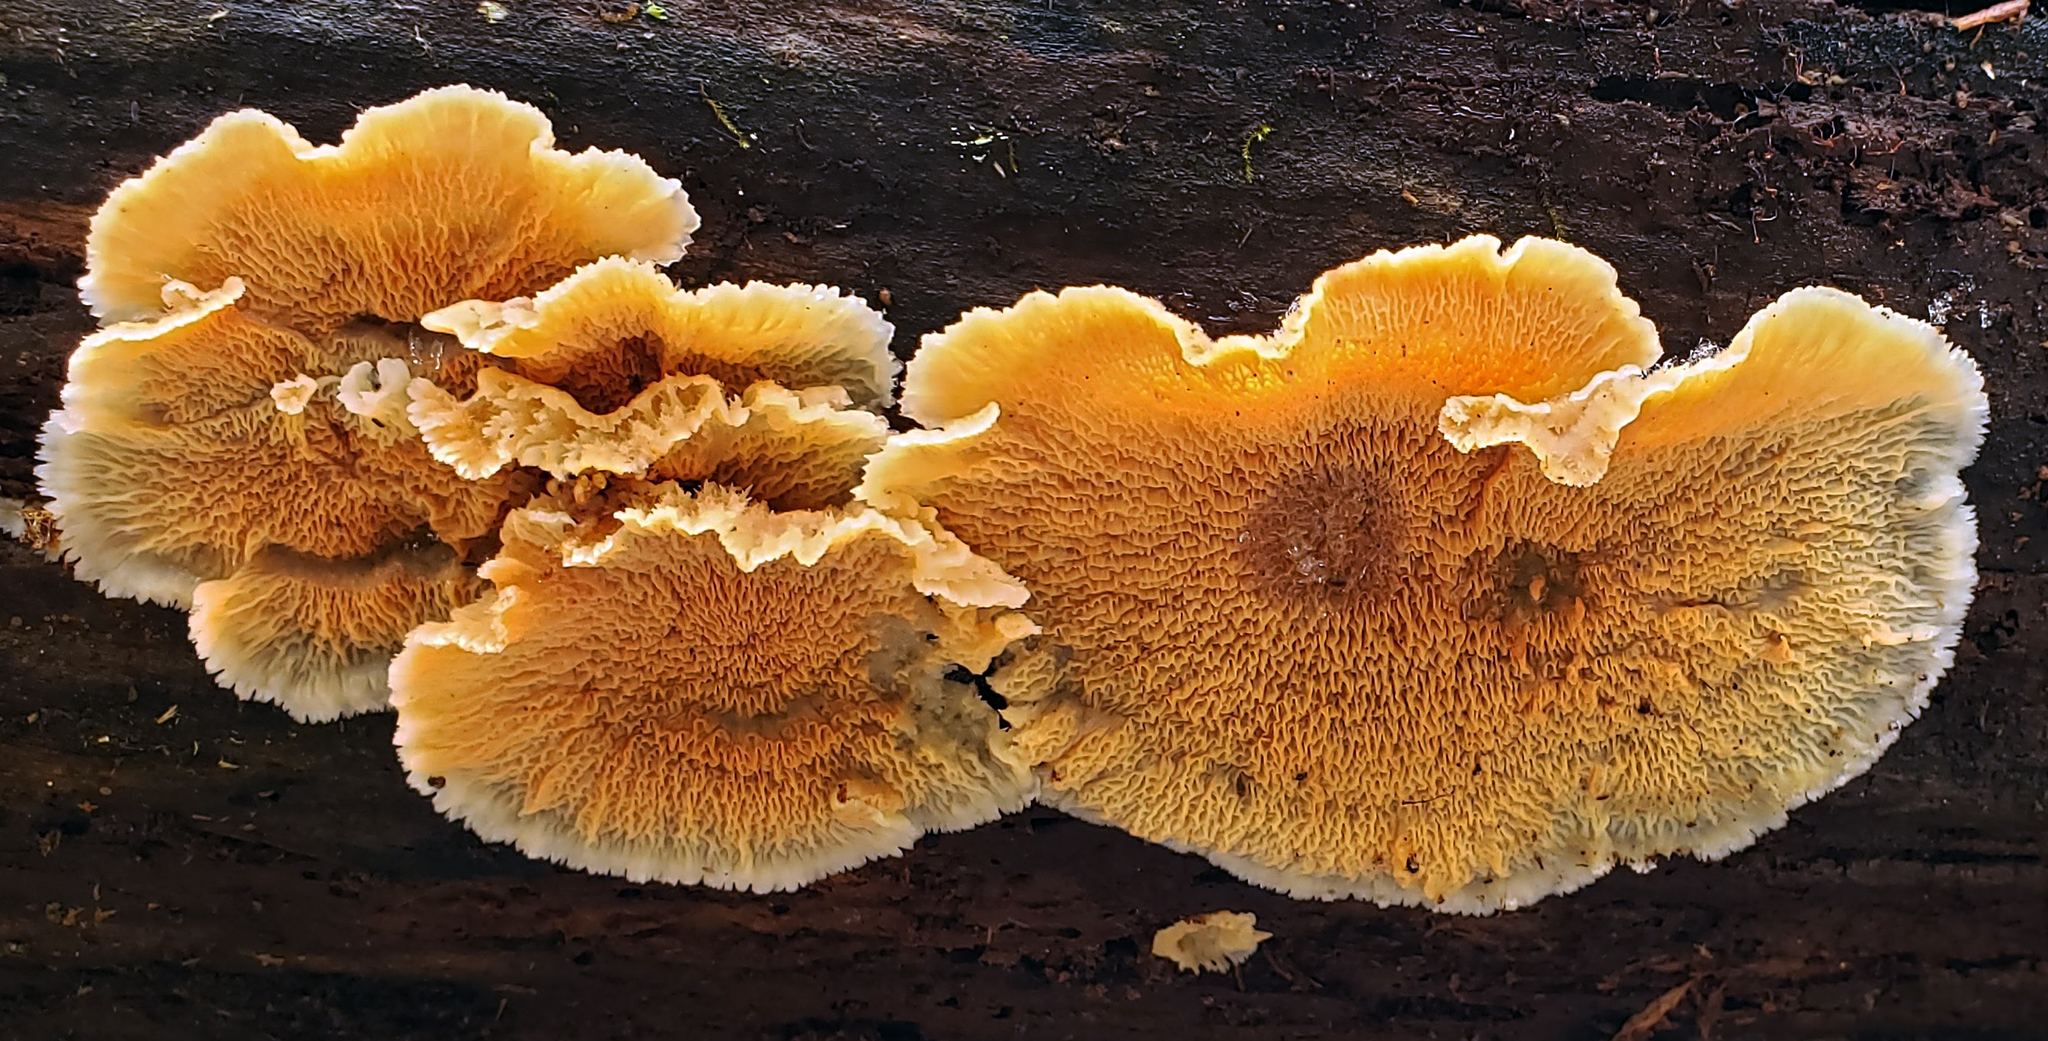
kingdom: Fungi
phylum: Basidiomycota
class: Agaricomycetes
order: Polyporales
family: Meruliaceae
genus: Phlebia
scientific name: Phlebia tremellosa
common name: Jelly rot
